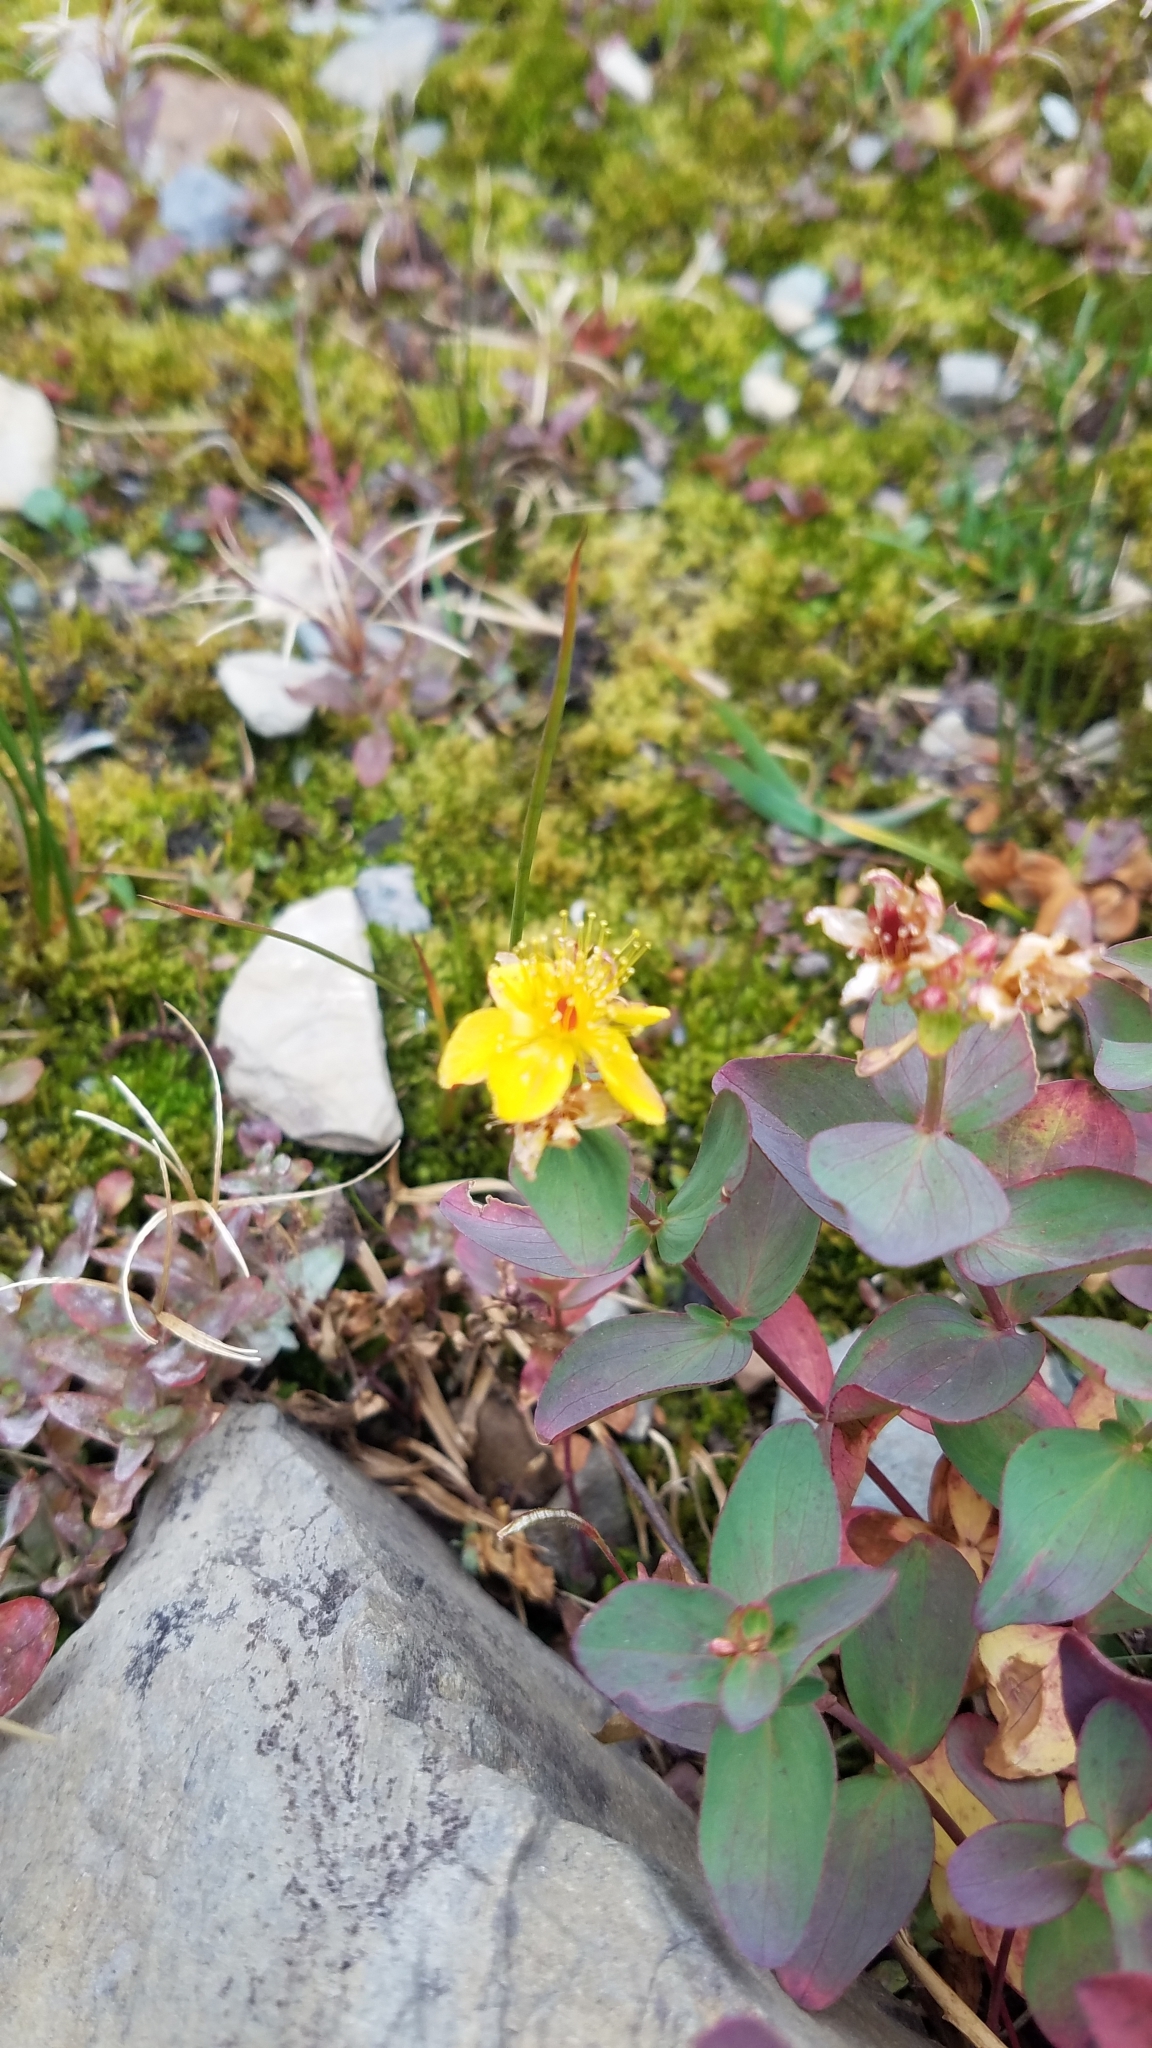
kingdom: Plantae
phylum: Tracheophyta
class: Magnoliopsida
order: Malpighiales
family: Hypericaceae
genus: Hypericum
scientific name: Hypericum scouleri
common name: Scouler's st. john's-wort
